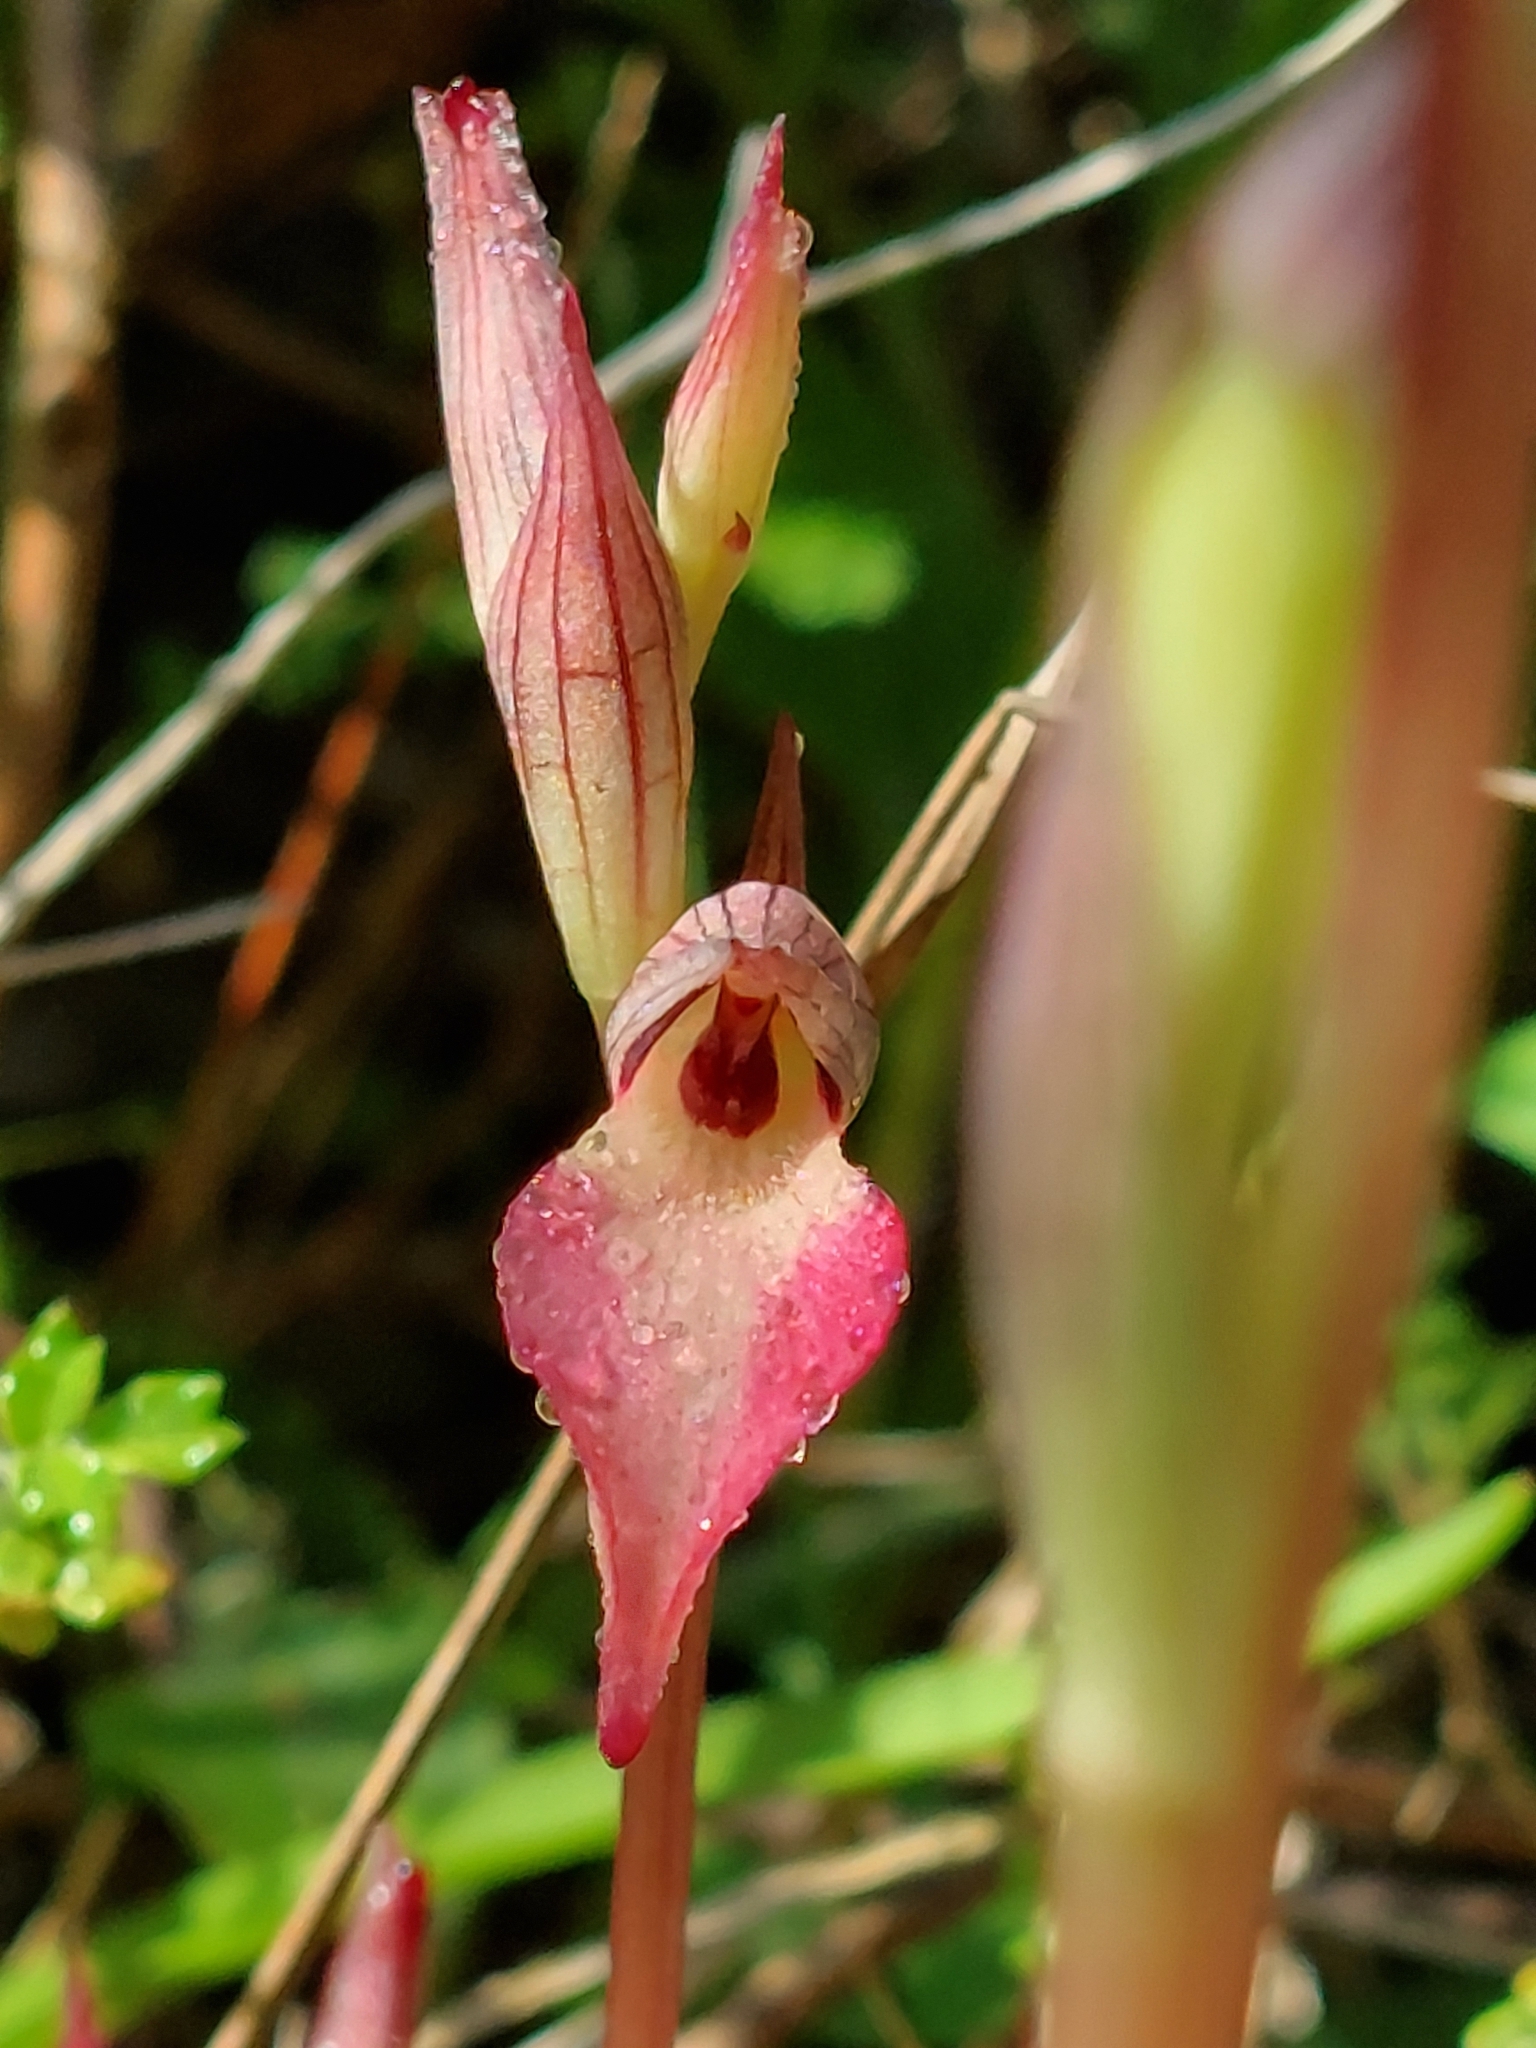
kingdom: Plantae
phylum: Tracheophyta
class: Liliopsida
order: Asparagales
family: Orchidaceae
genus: Serapias
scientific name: Serapias lingua
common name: Tongue-orchid
